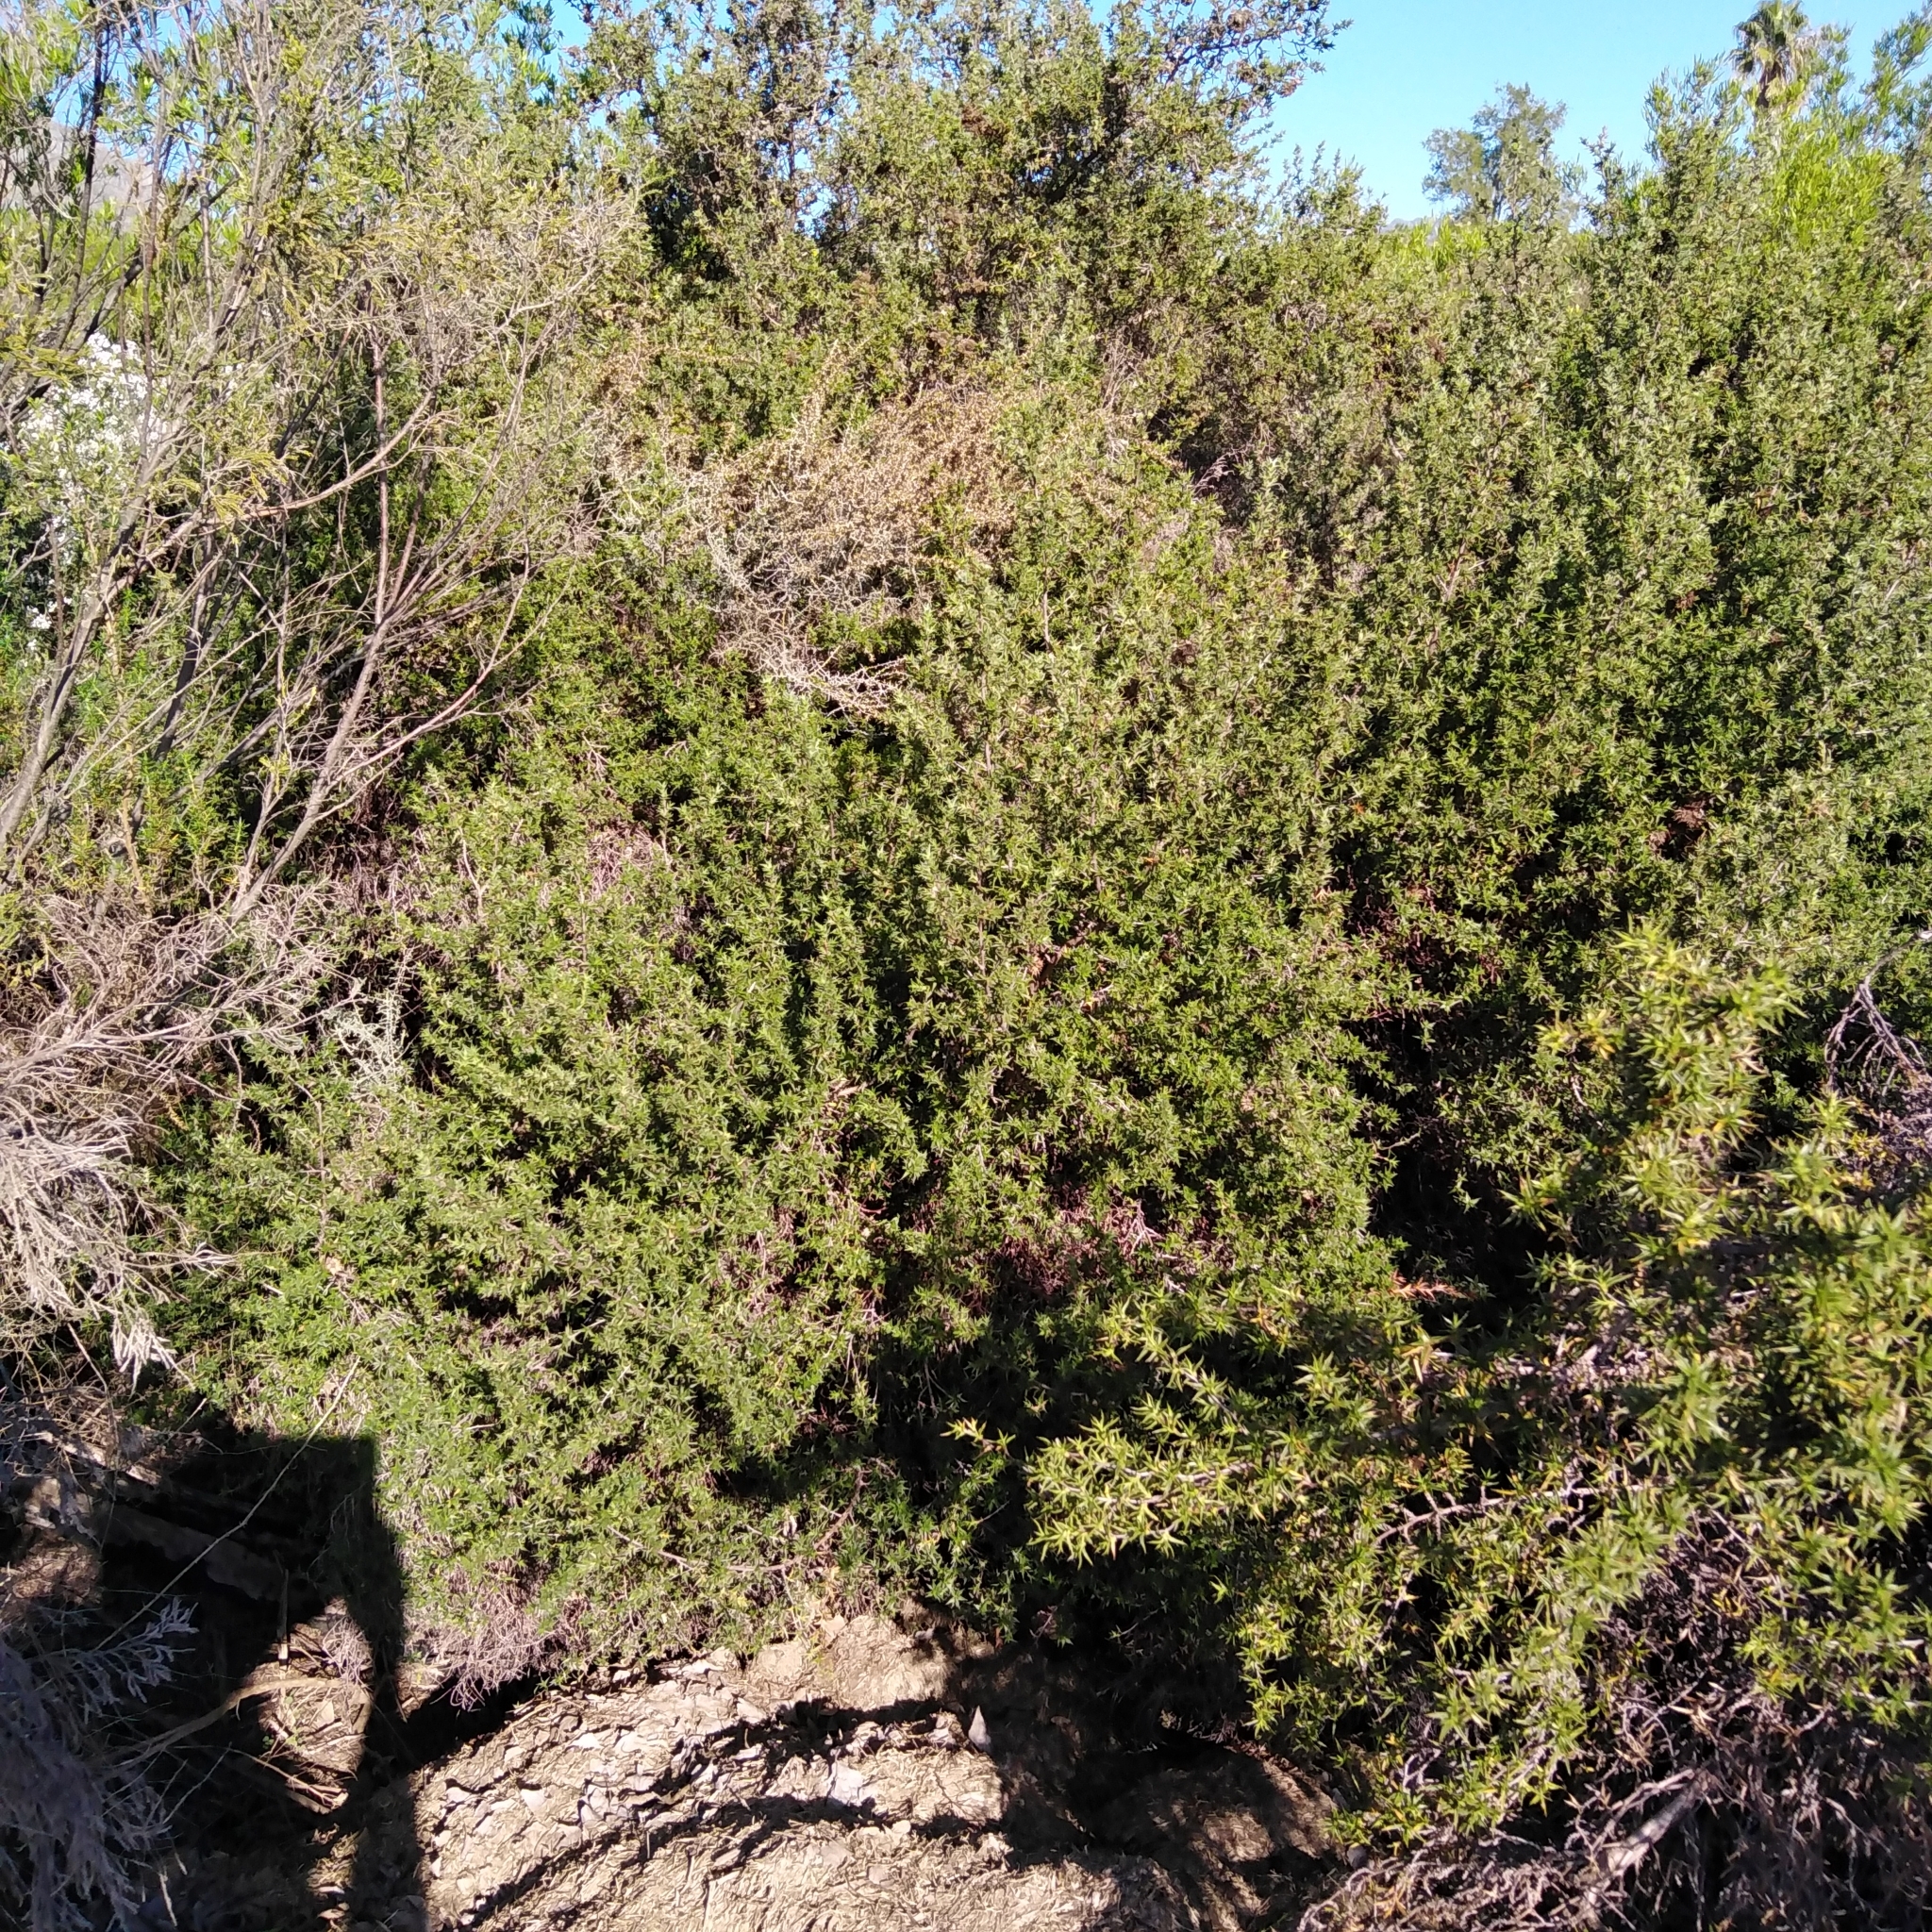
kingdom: Plantae
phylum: Tracheophyta
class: Magnoliopsida
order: Rosales
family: Rosaceae
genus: Cliffortia
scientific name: Cliffortia ruscifolia
